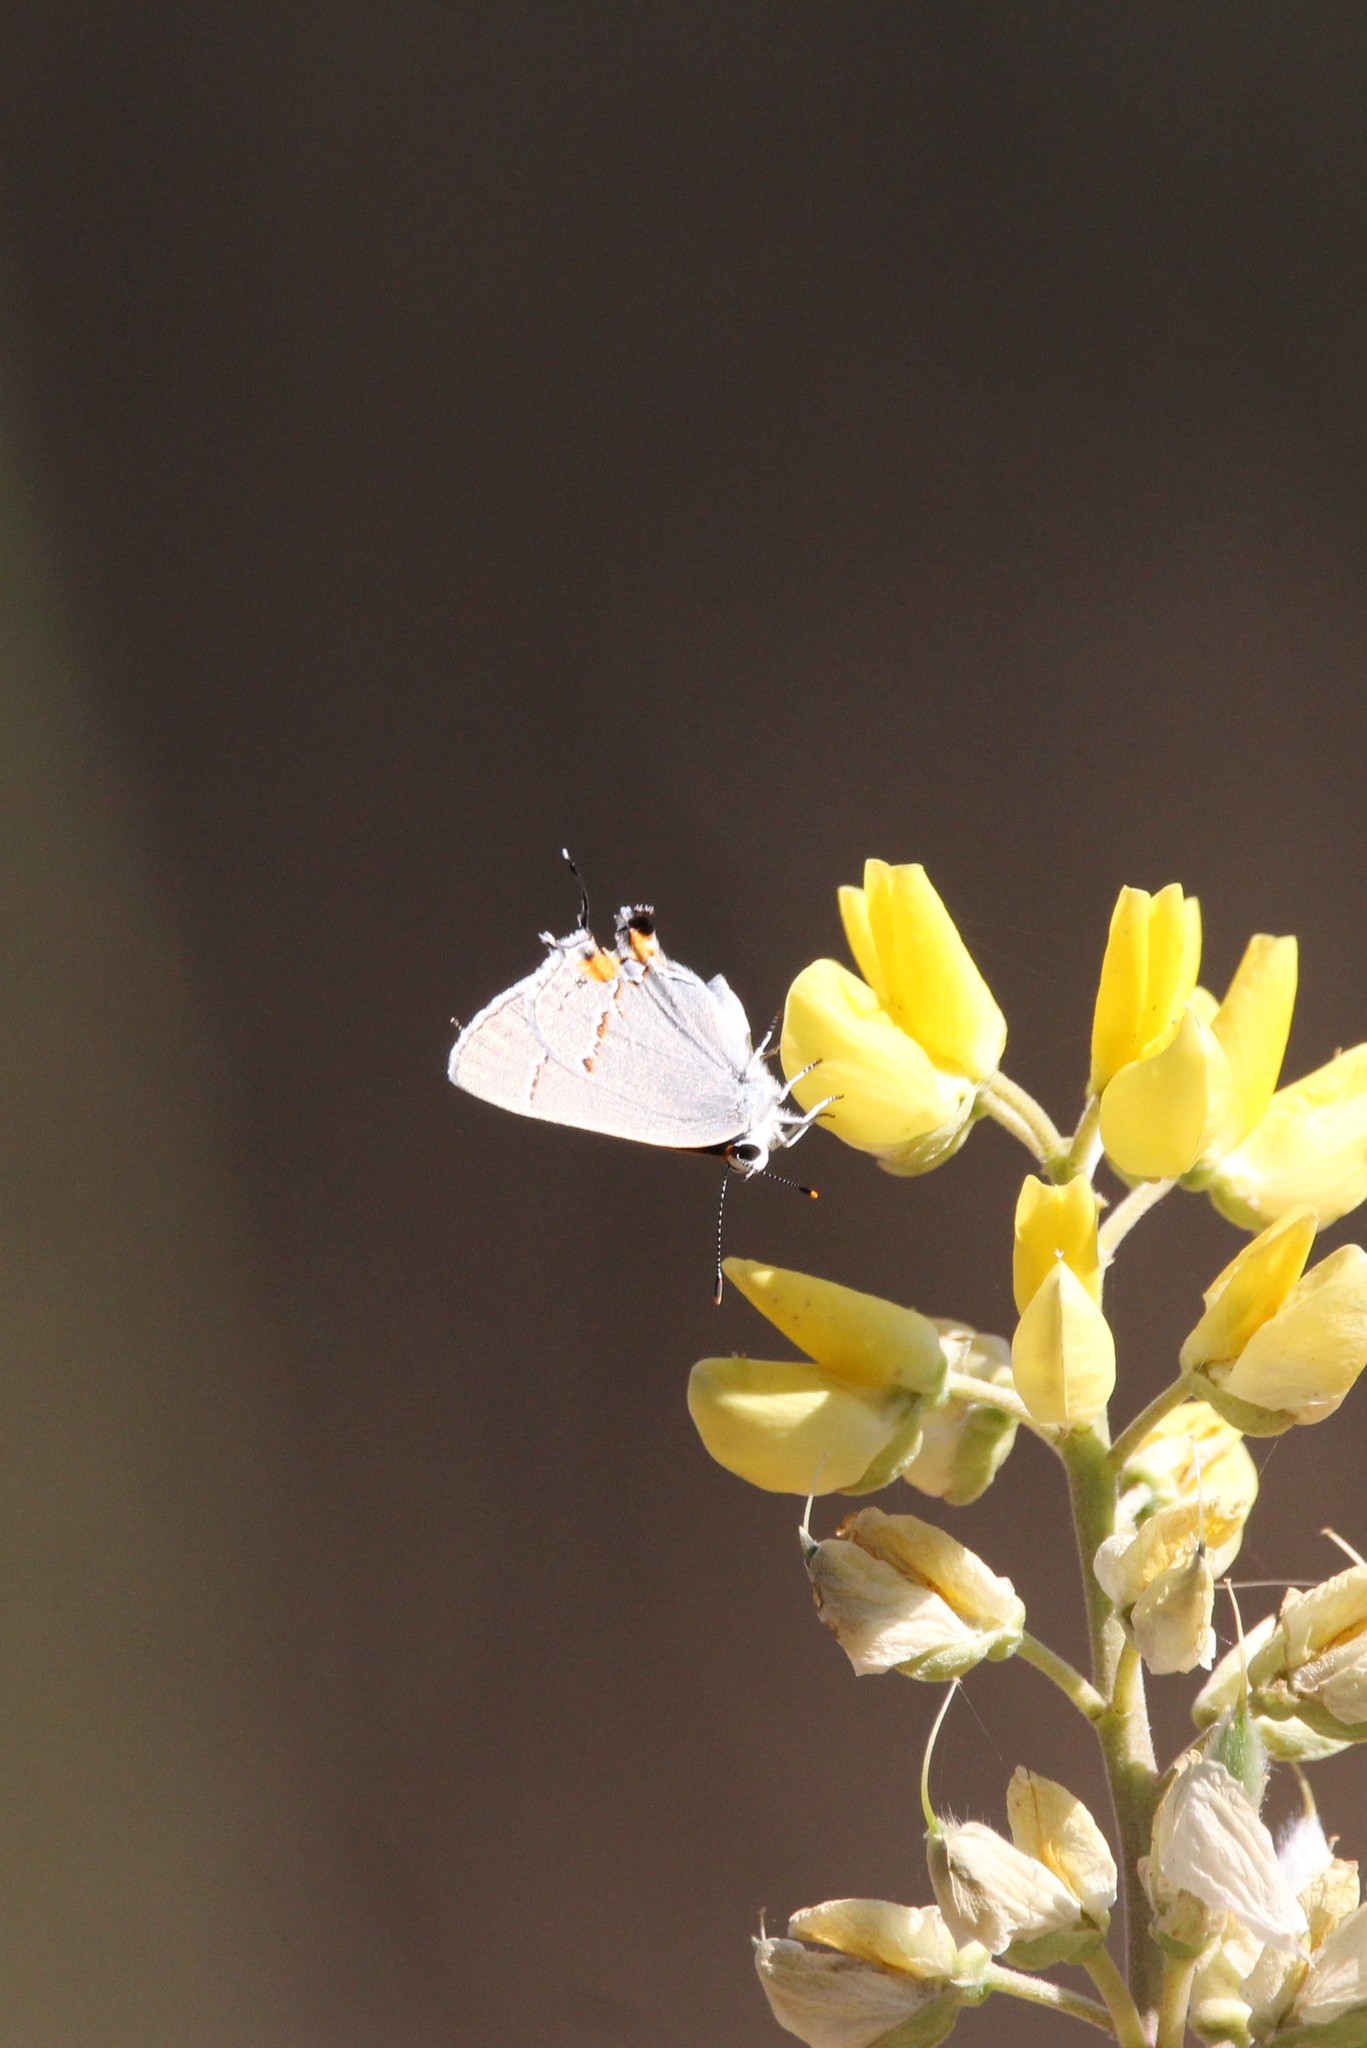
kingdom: Animalia
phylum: Arthropoda
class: Insecta
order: Lepidoptera
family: Lycaenidae
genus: Strymon
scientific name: Strymon melinus
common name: Gray hairstreak
